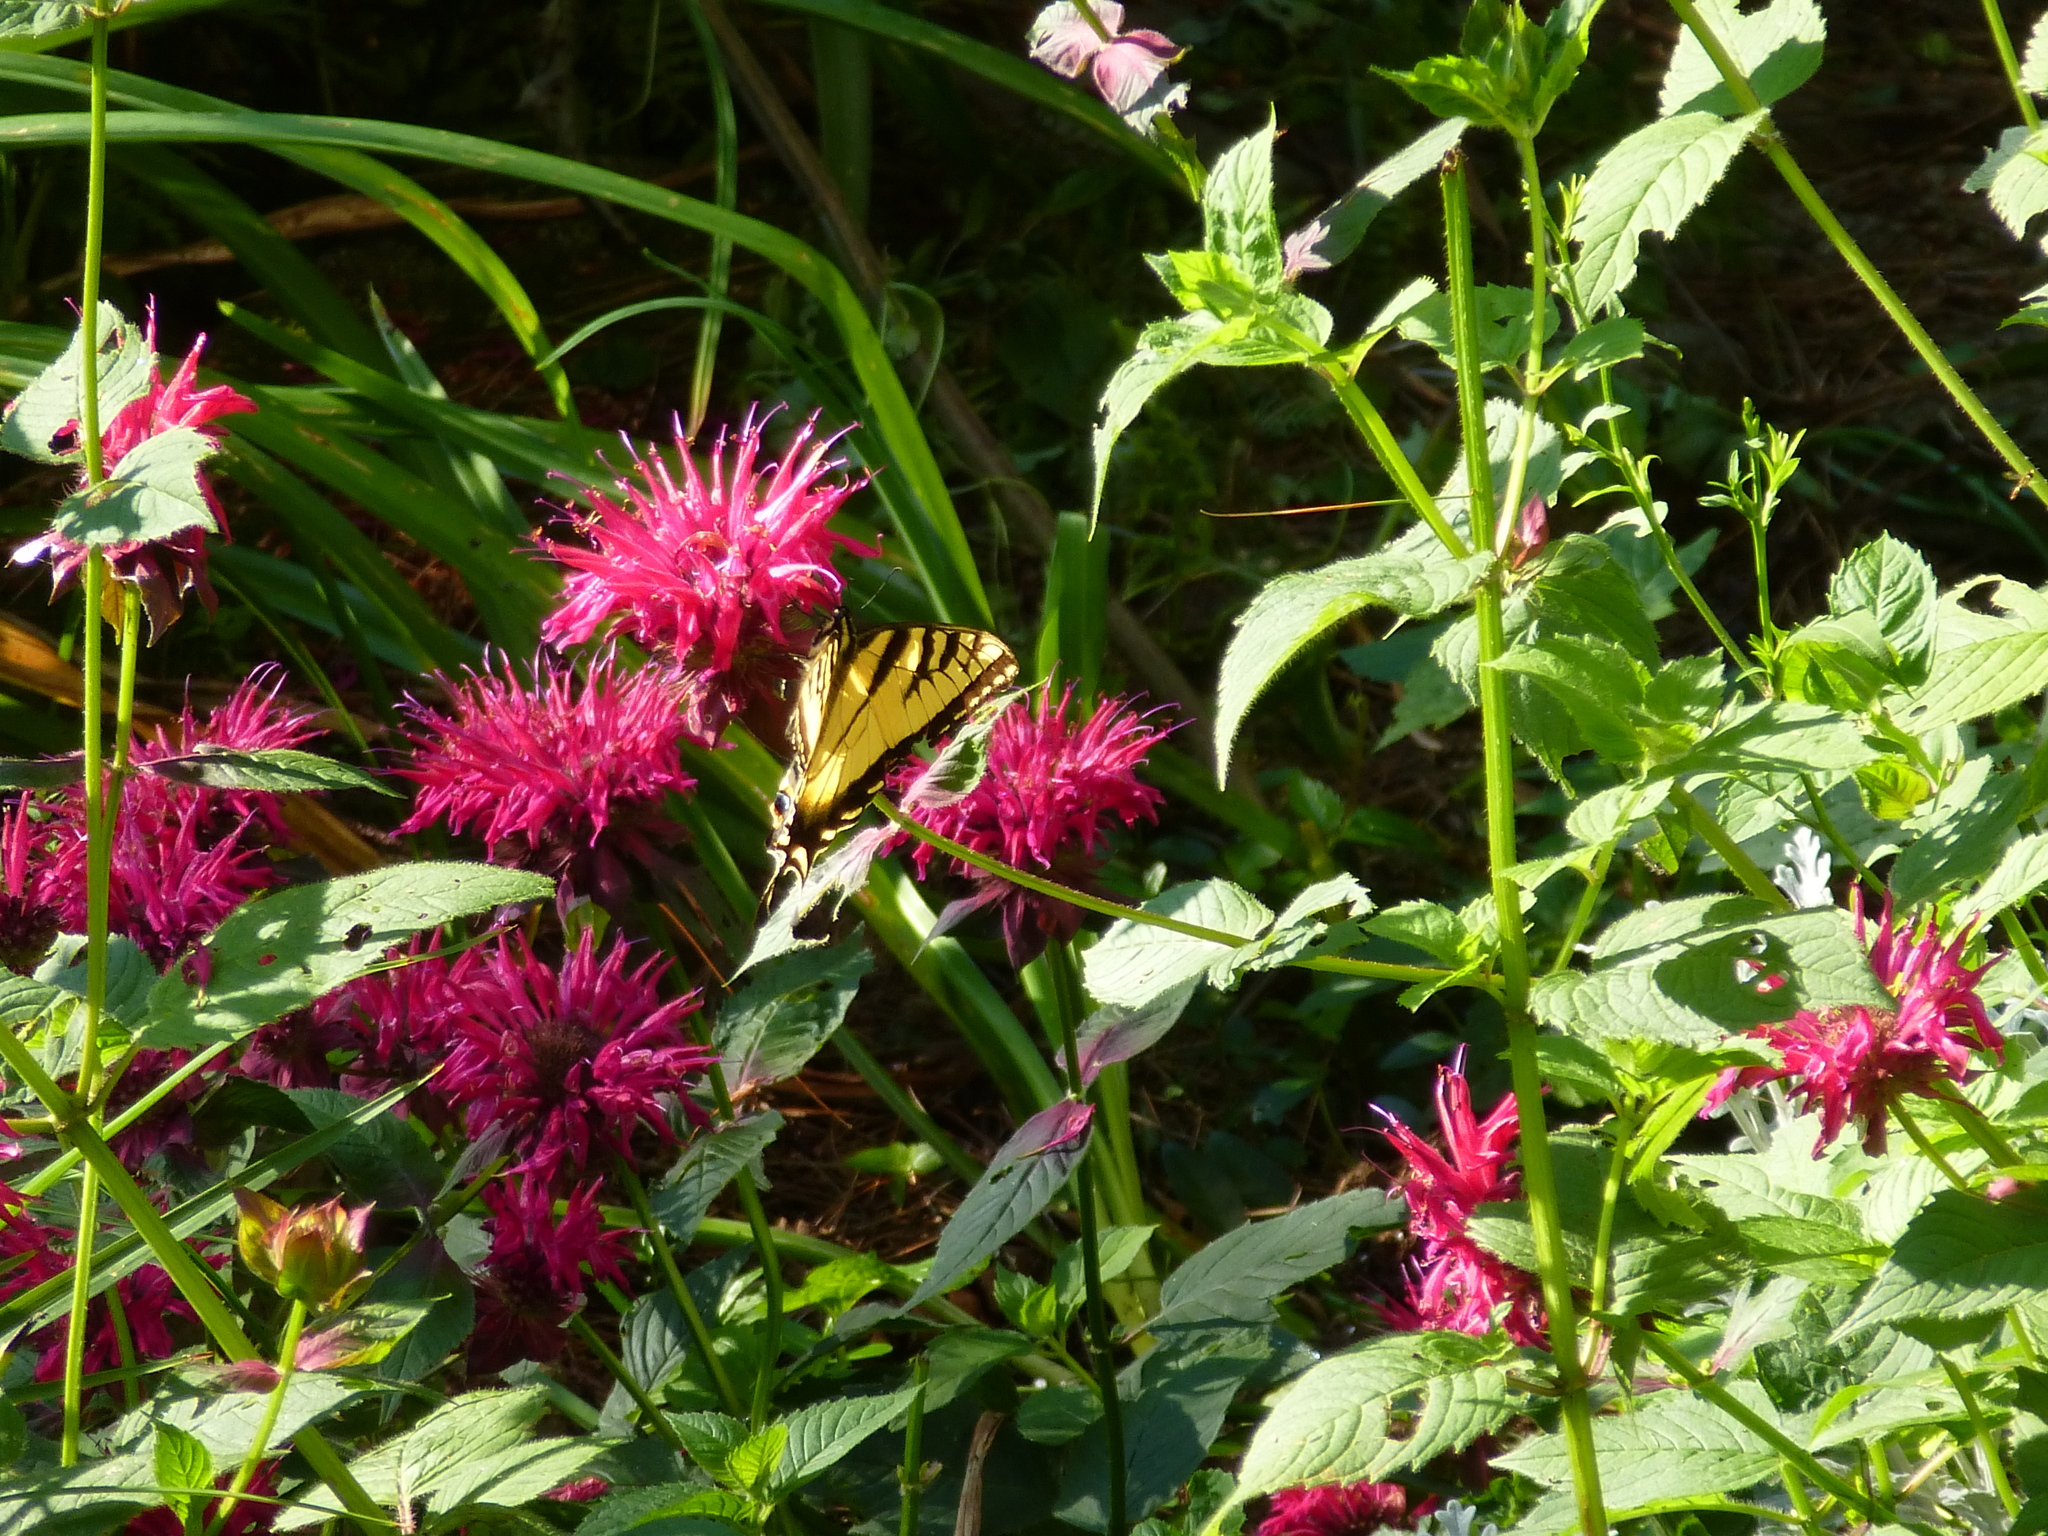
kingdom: Animalia
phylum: Arthropoda
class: Insecta
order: Lepidoptera
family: Papilionidae
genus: Papilio
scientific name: Papilio glaucus
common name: Tiger swallowtail
